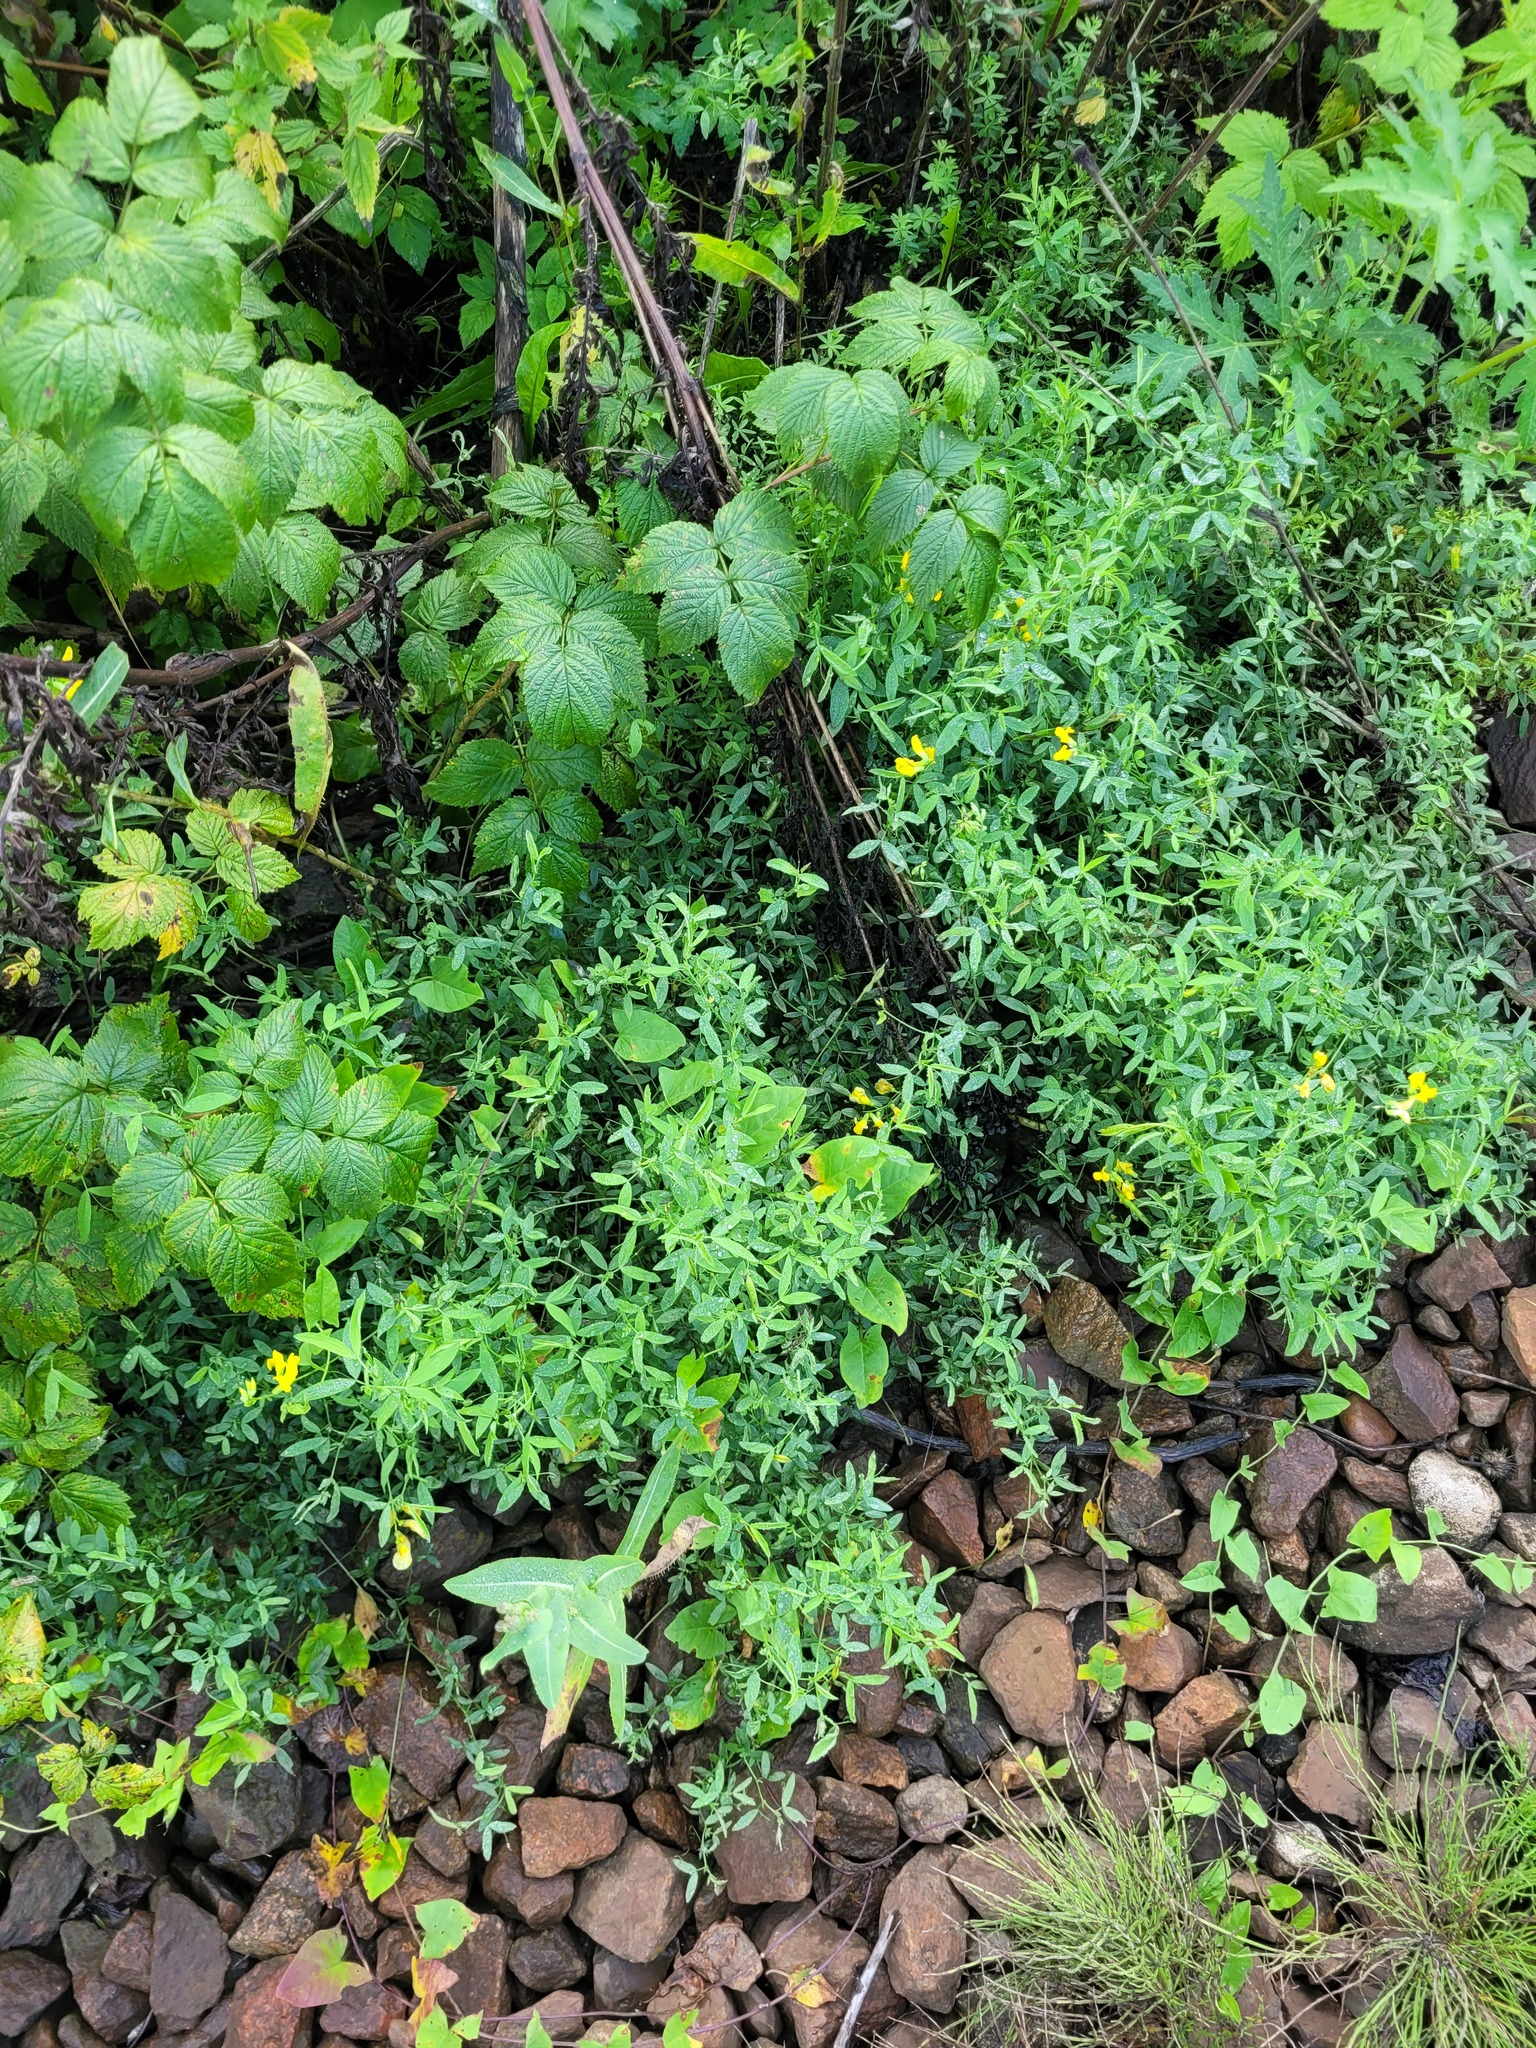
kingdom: Plantae
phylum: Tracheophyta
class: Magnoliopsida
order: Fabales
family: Fabaceae
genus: Lathyrus
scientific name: Lathyrus pratensis
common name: Meadow vetchling
